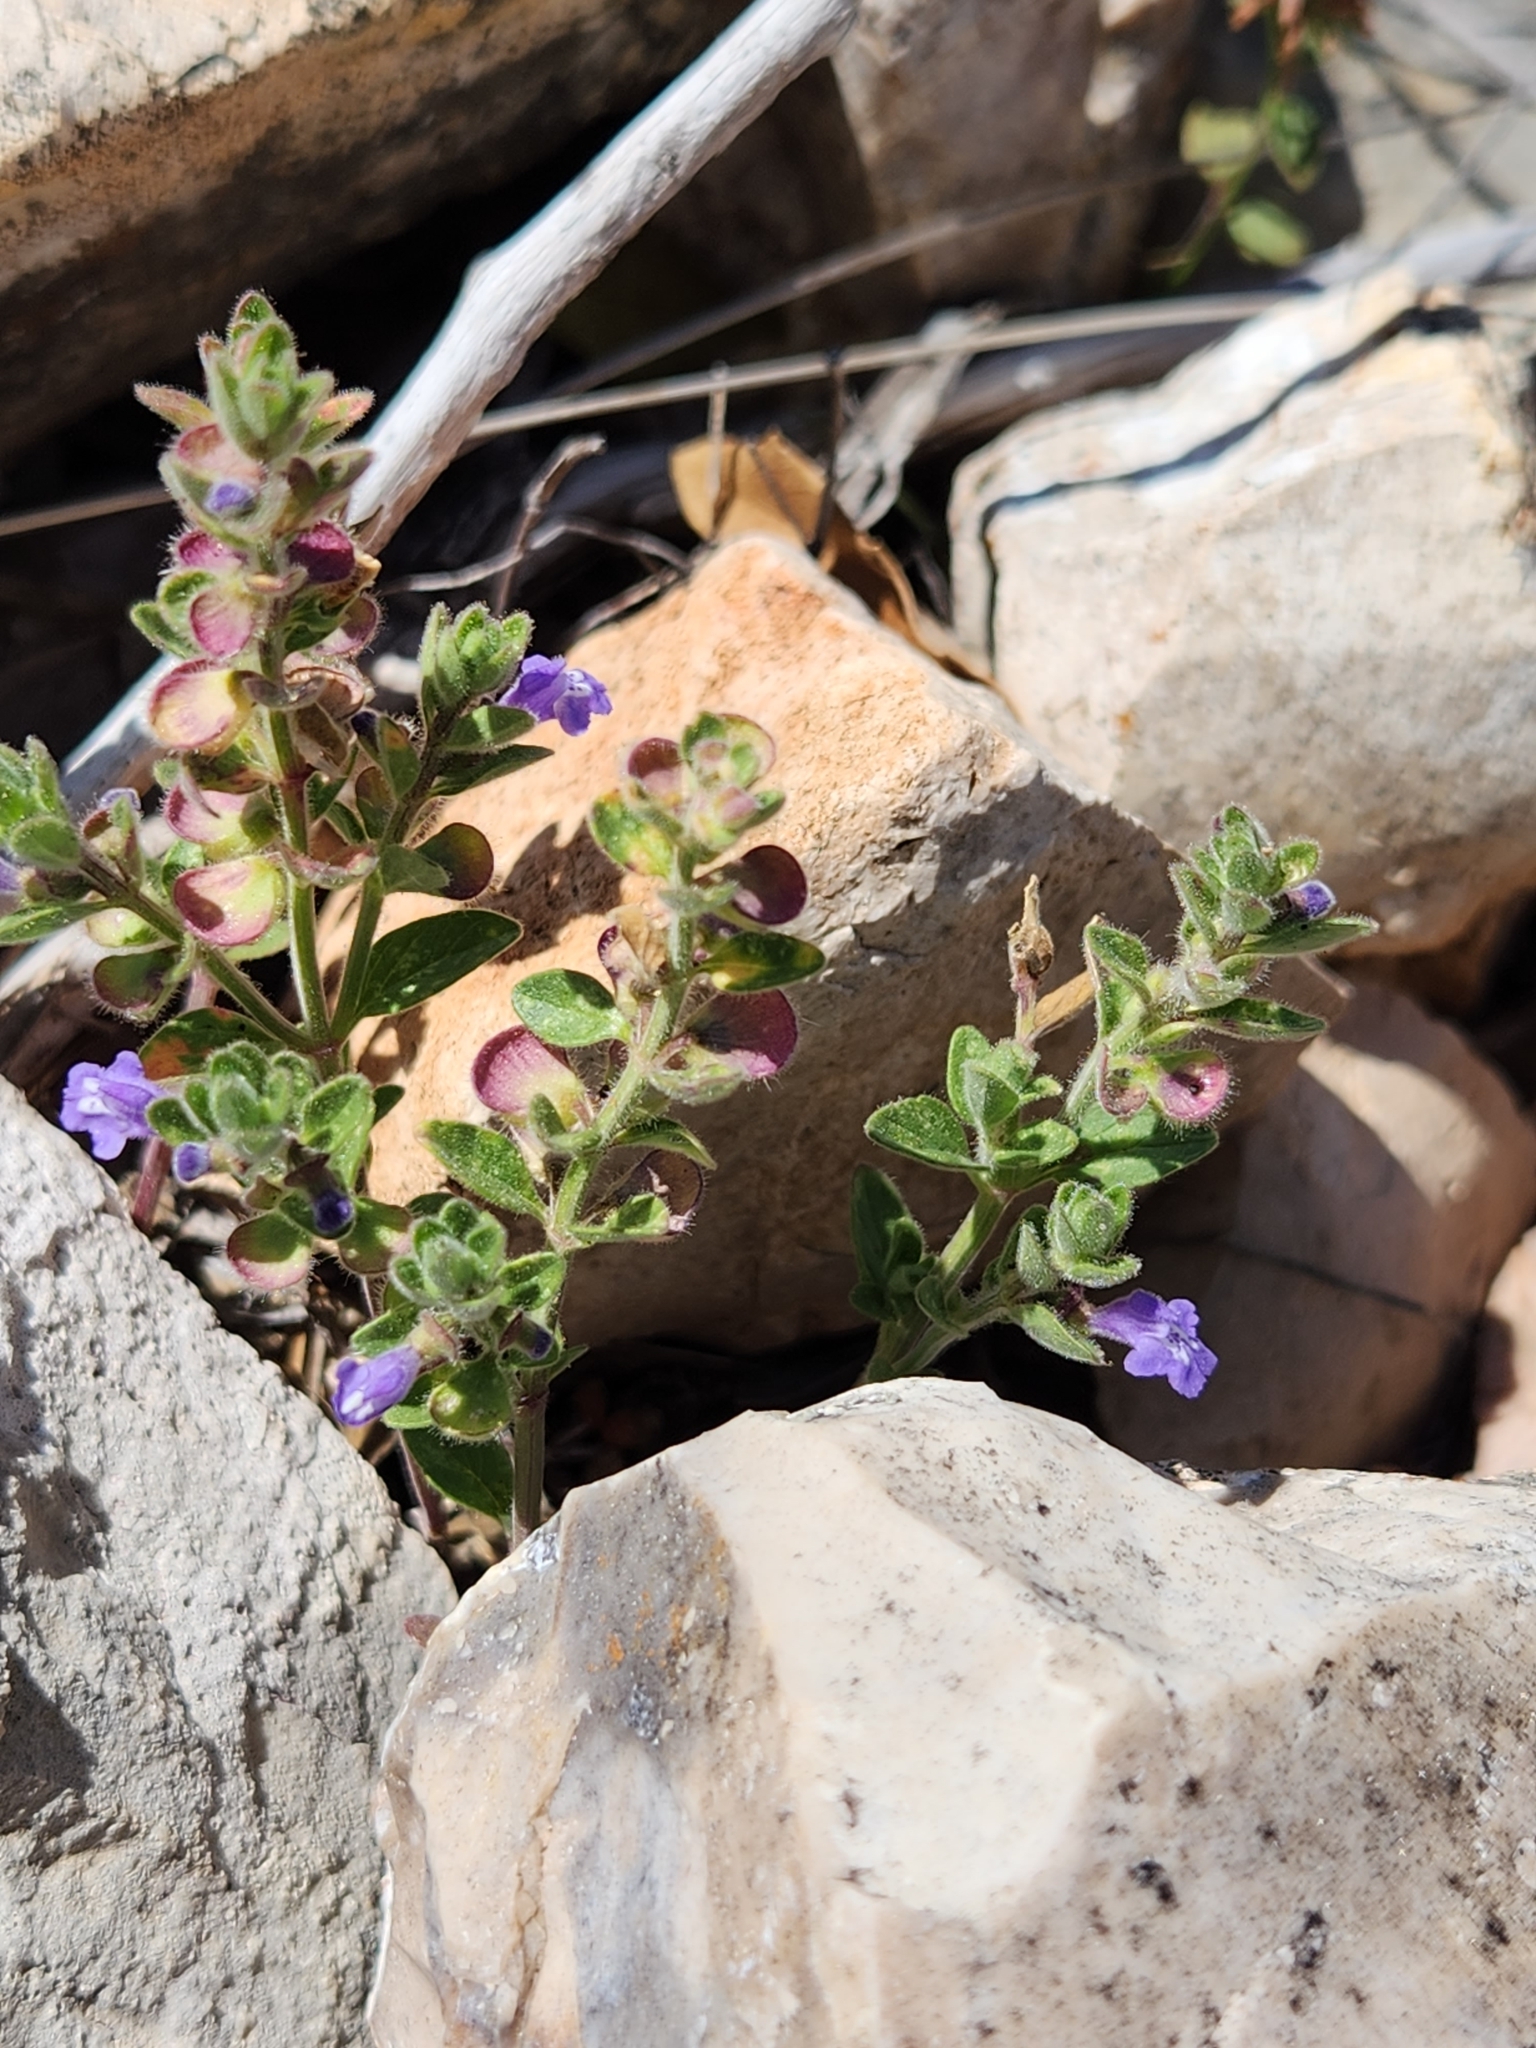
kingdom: Plantae
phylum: Tracheophyta
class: Magnoliopsida
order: Lamiales
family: Lamiaceae
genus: Scutellaria
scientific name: Scutellaria drummondii
